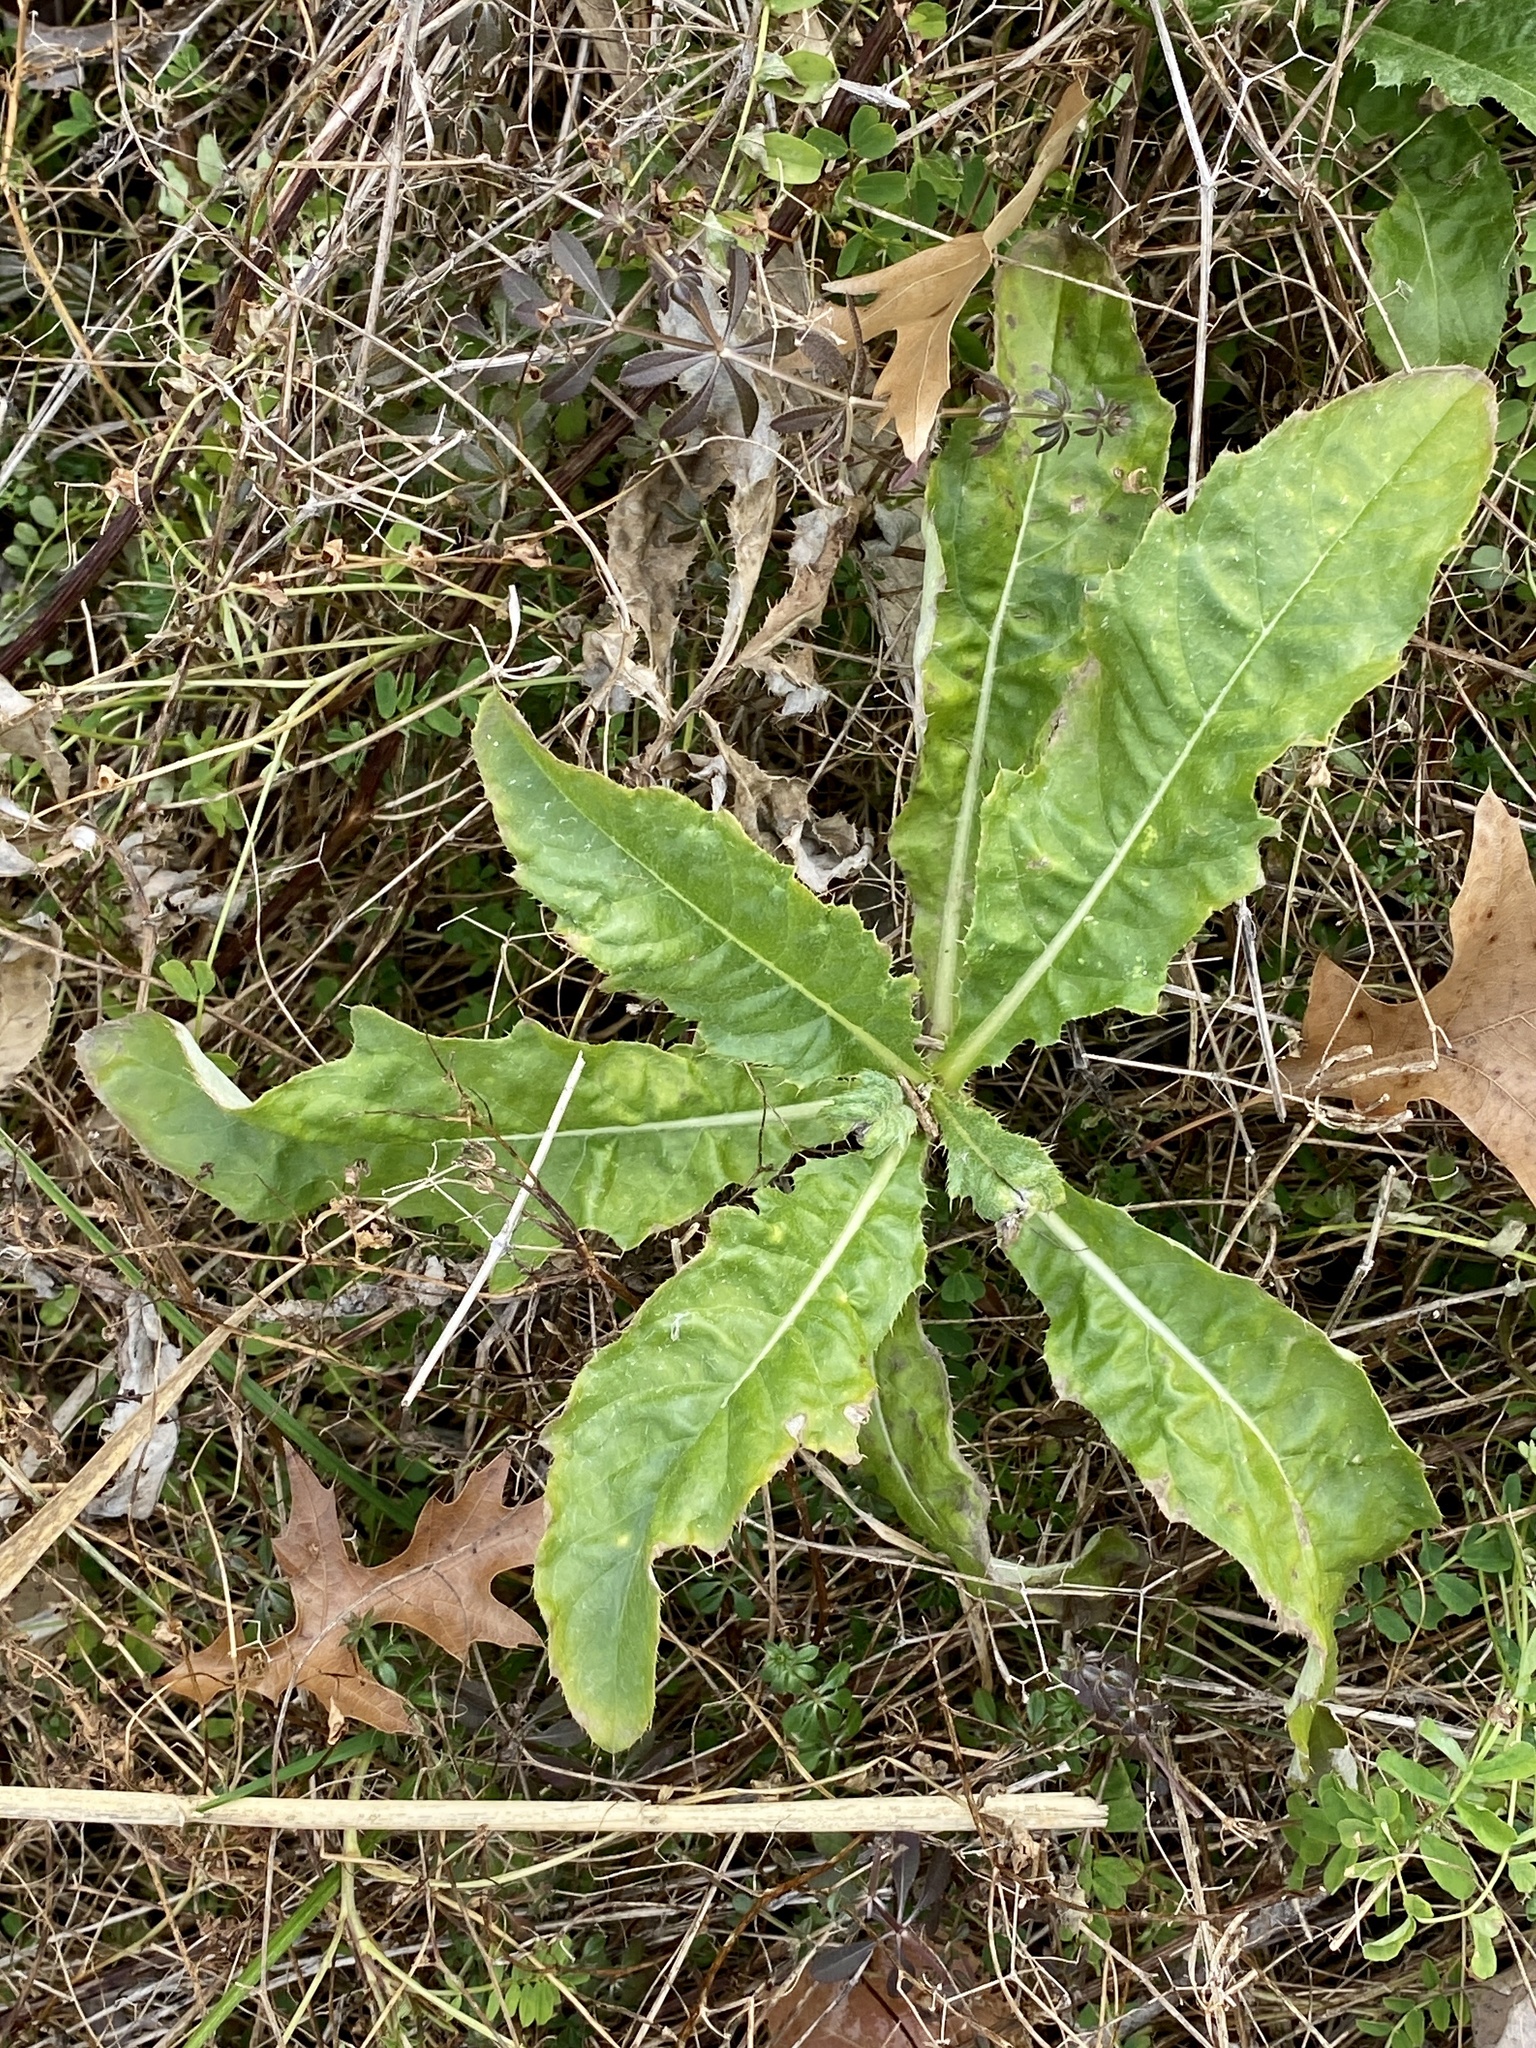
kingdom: Plantae
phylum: Tracheophyta
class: Magnoliopsida
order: Asterales
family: Asteraceae
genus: Cirsium
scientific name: Cirsium arvense
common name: Creeping thistle
